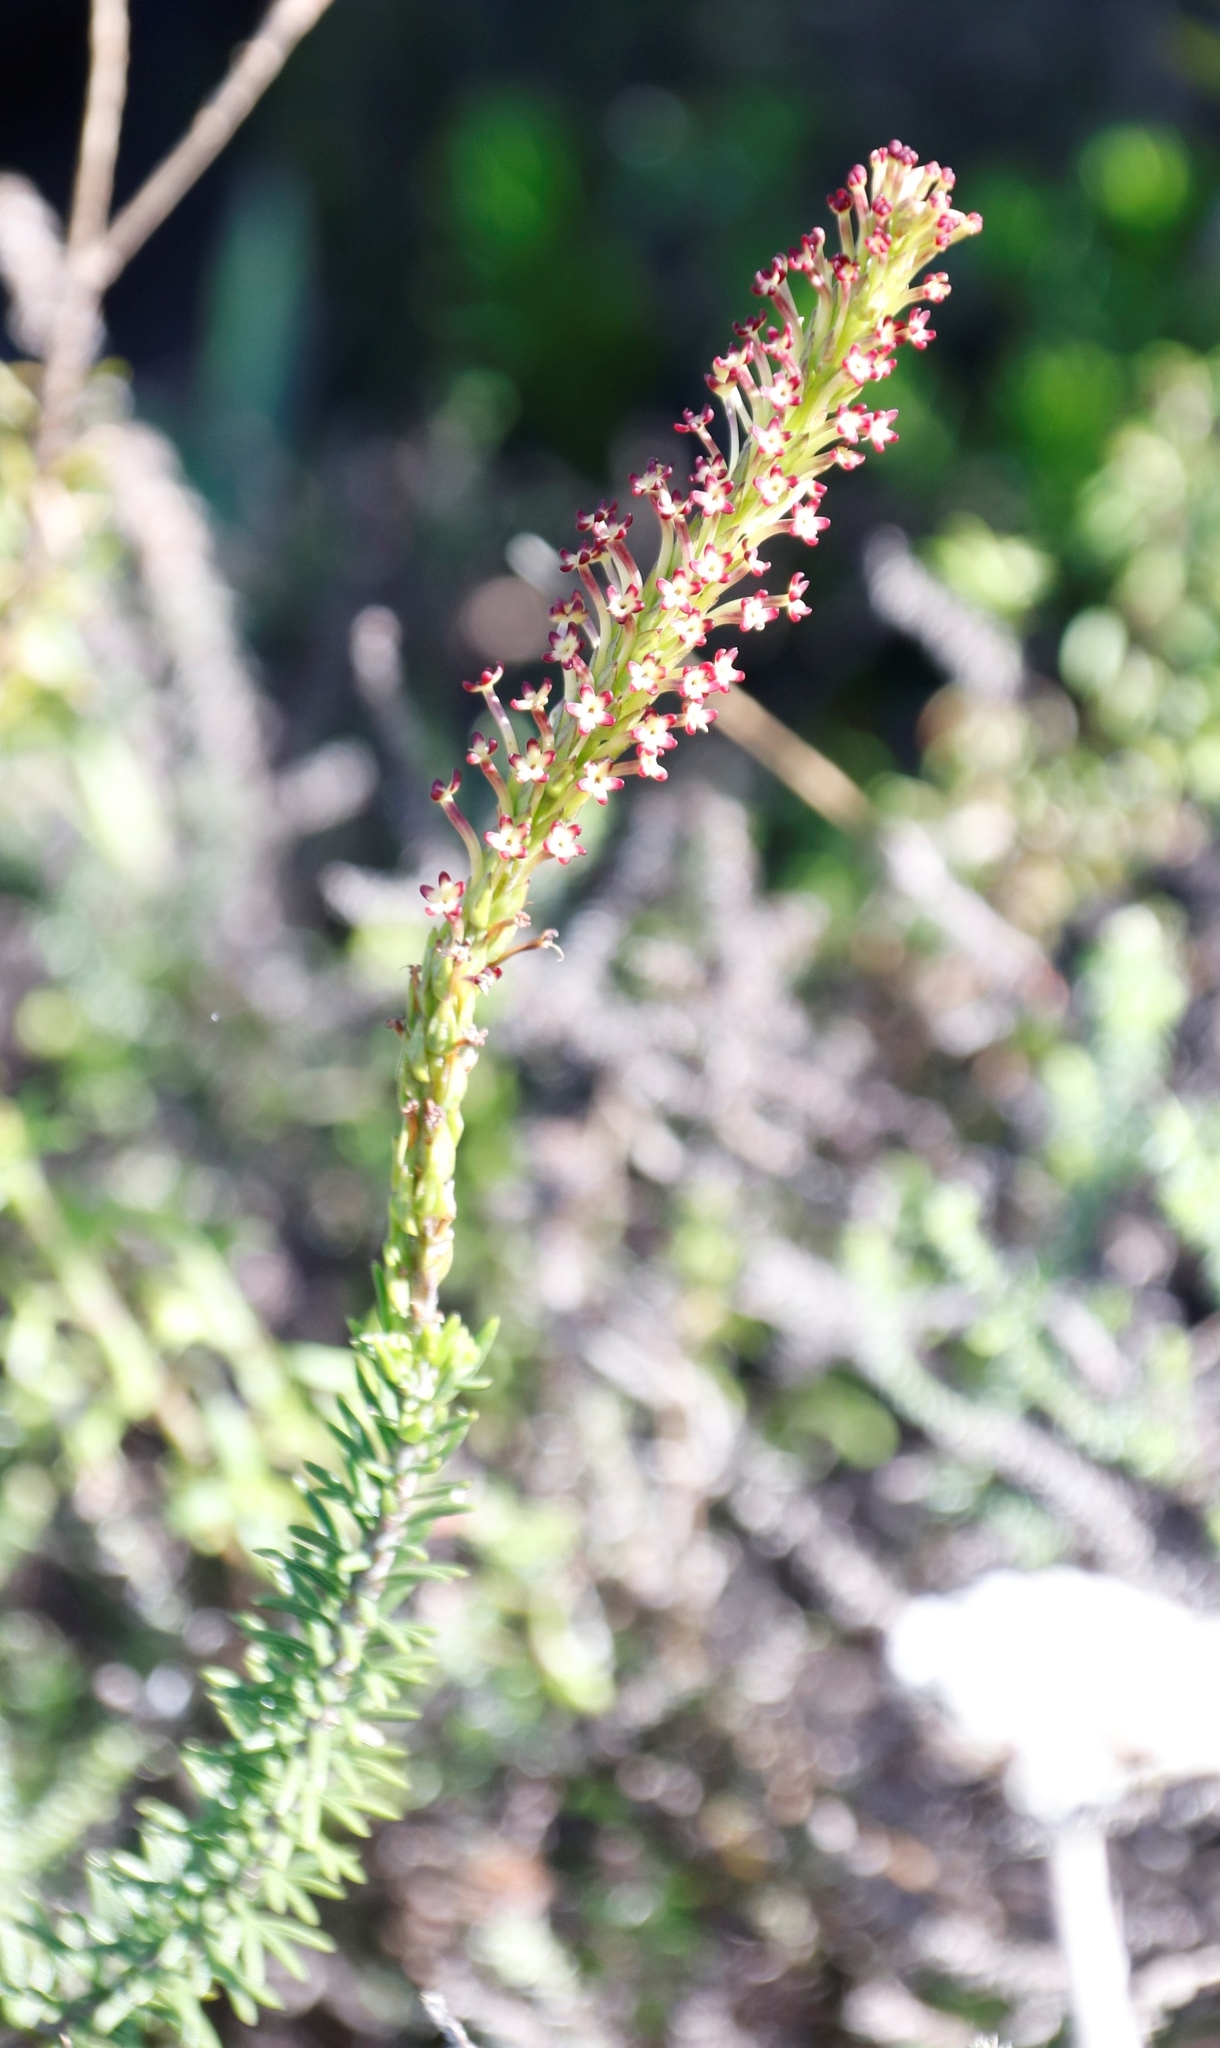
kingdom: Plantae
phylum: Tracheophyta
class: Magnoliopsida
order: Lamiales
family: Scrophulariaceae
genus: Microdon
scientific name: Microdon dubius
